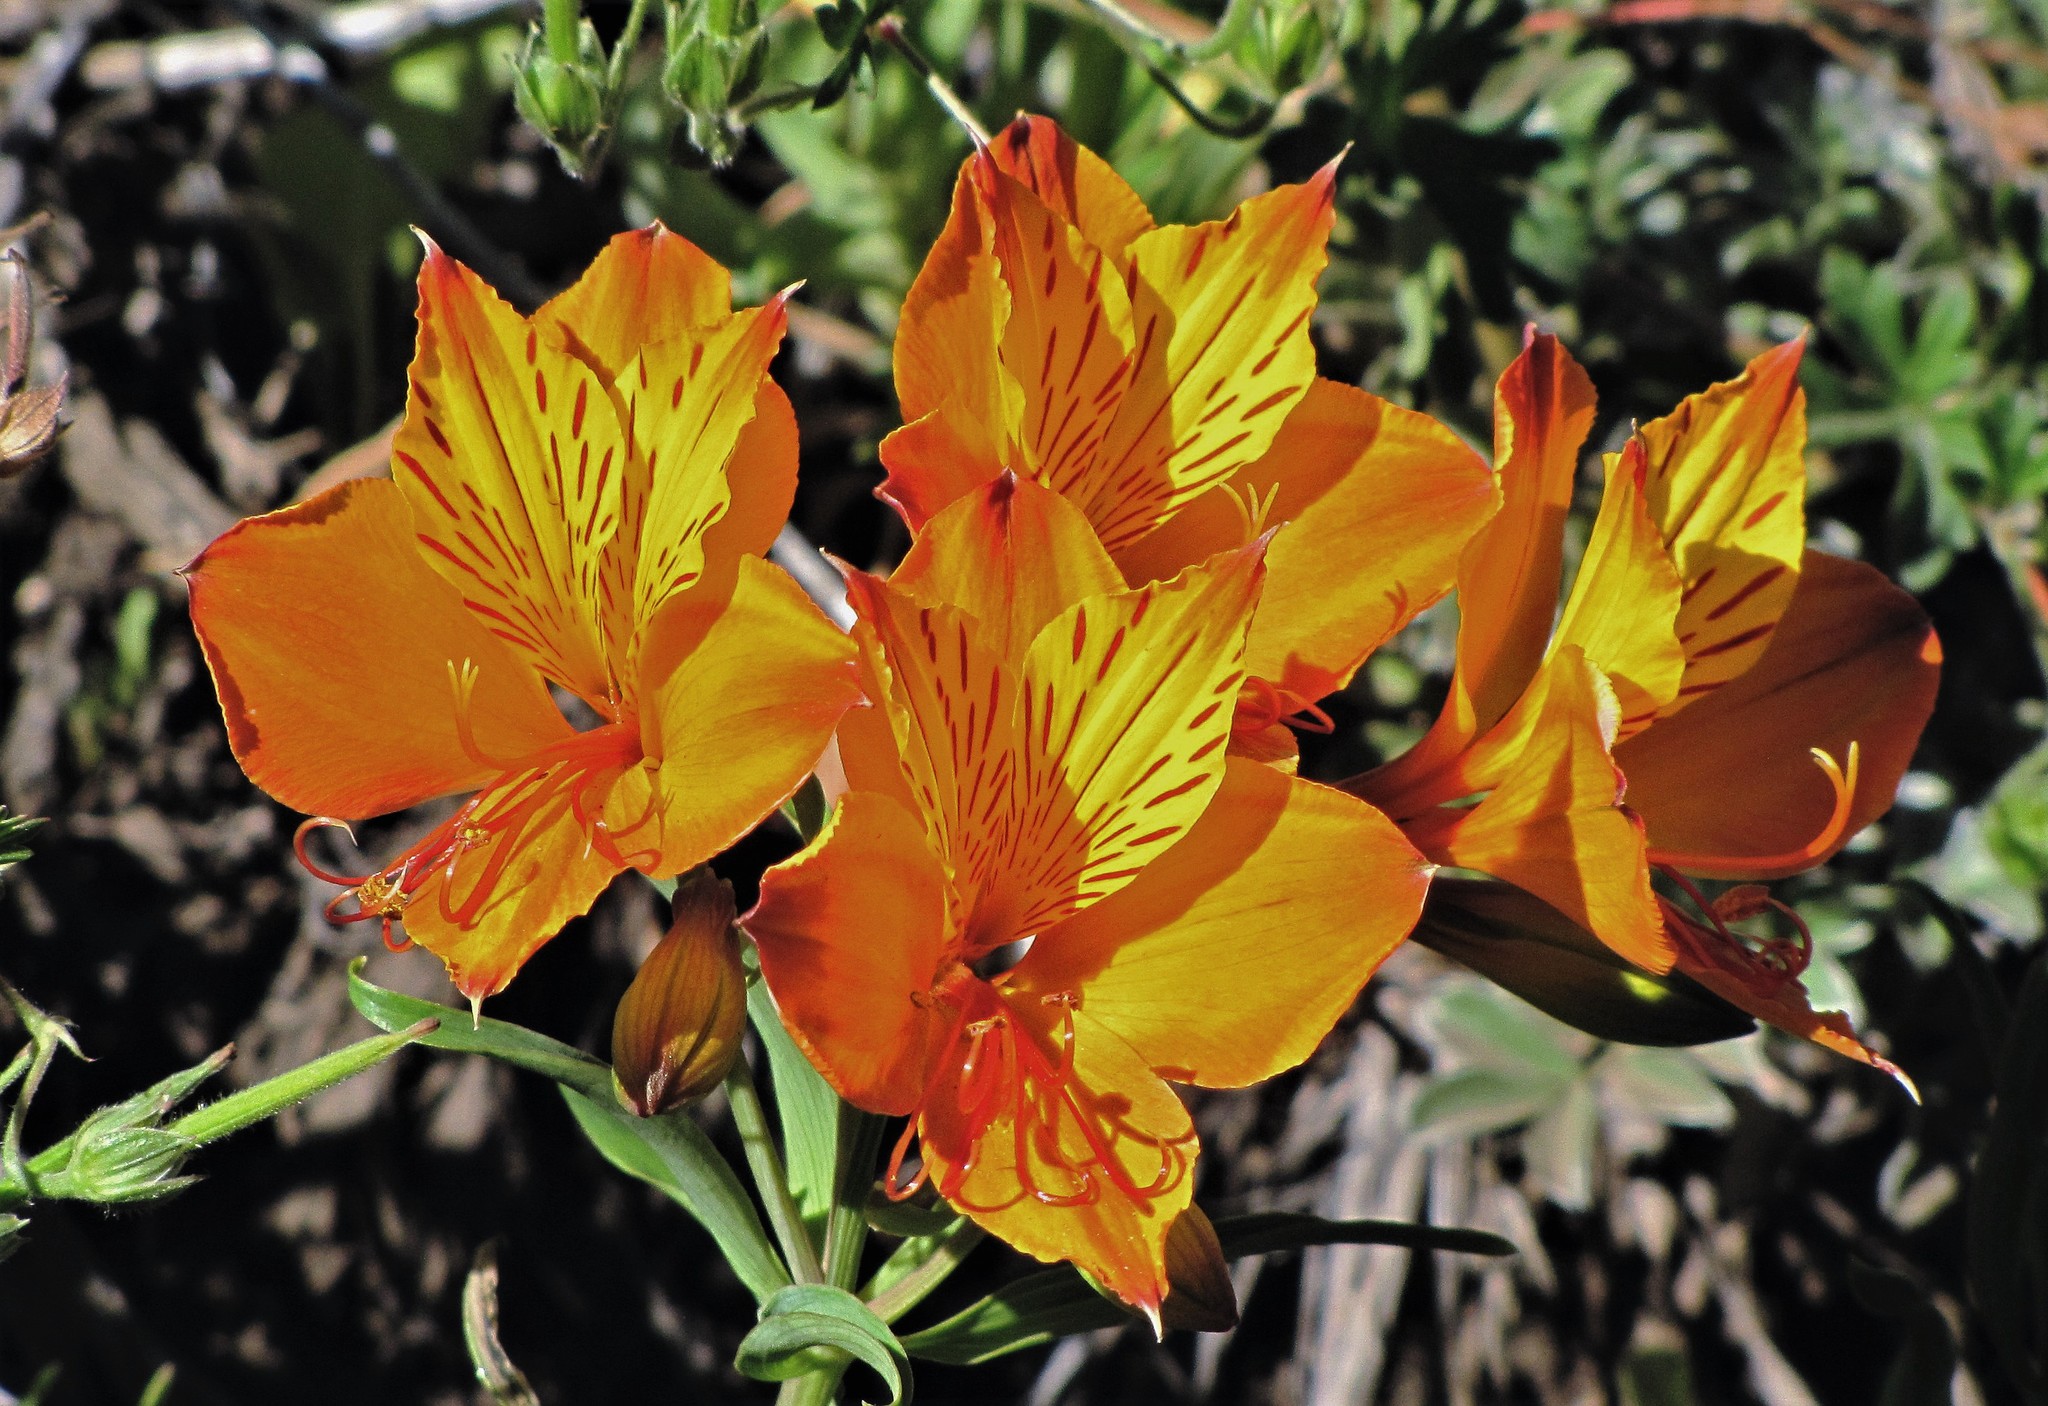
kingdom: Plantae
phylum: Tracheophyta
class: Liliopsida
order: Liliales
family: Alstroemeriaceae
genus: Alstroemeria
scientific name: Alstroemeria aurea
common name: Peruvian lily
